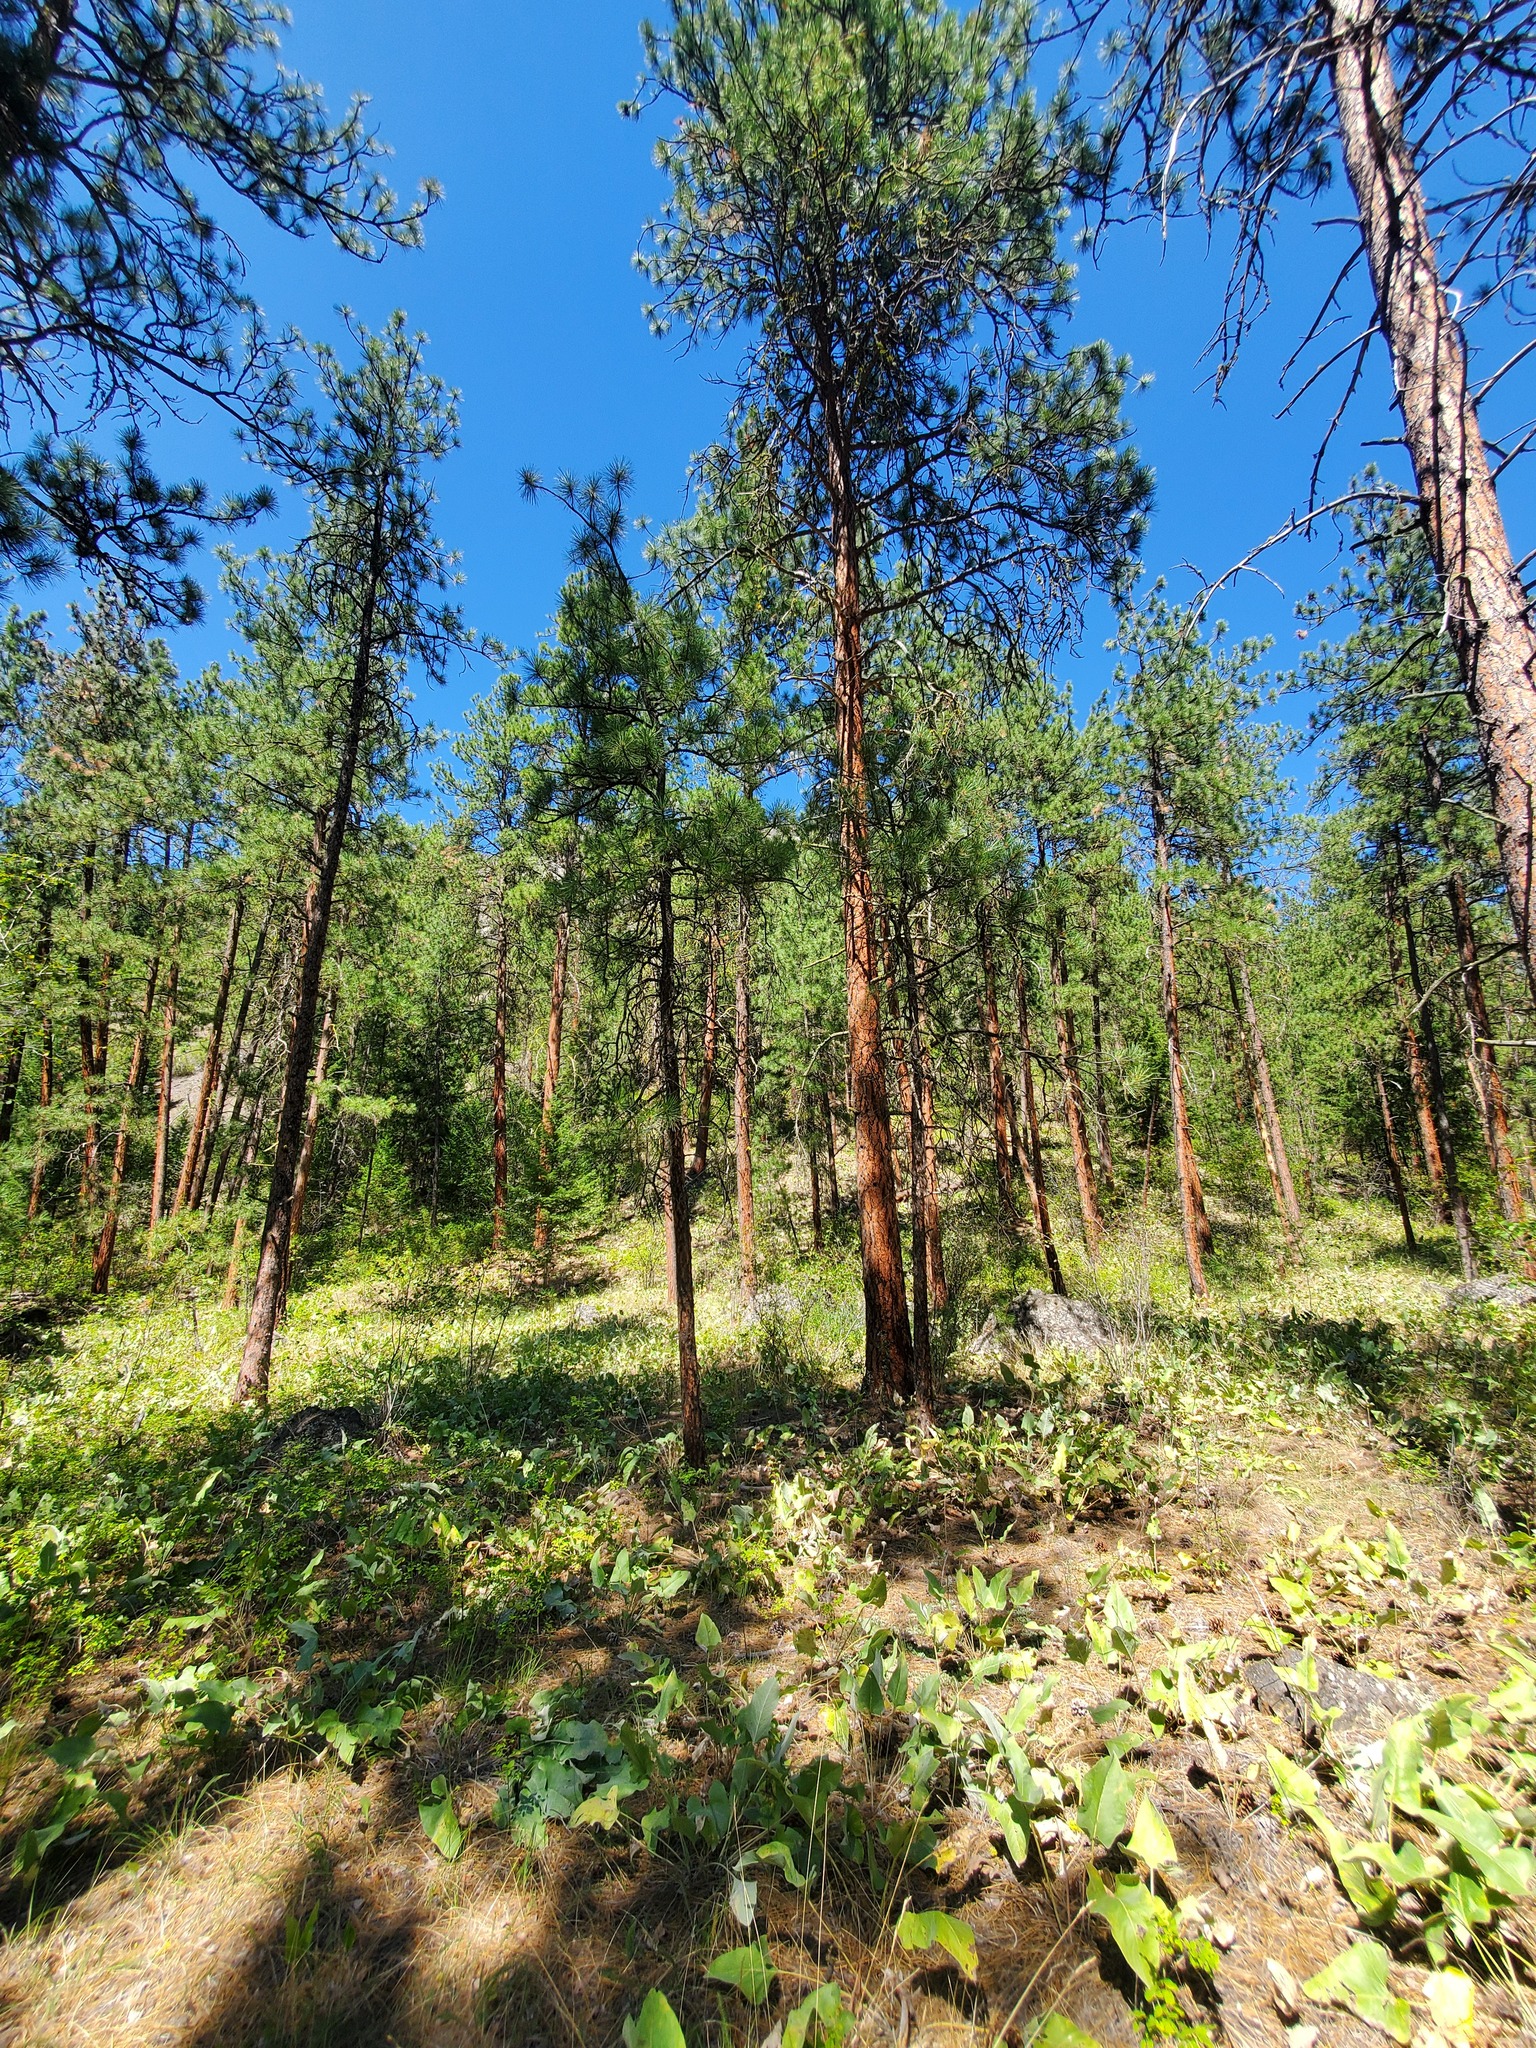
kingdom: Plantae
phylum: Tracheophyta
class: Pinopsida
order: Pinales
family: Pinaceae
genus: Pinus
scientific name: Pinus ponderosa
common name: Western yellow-pine
